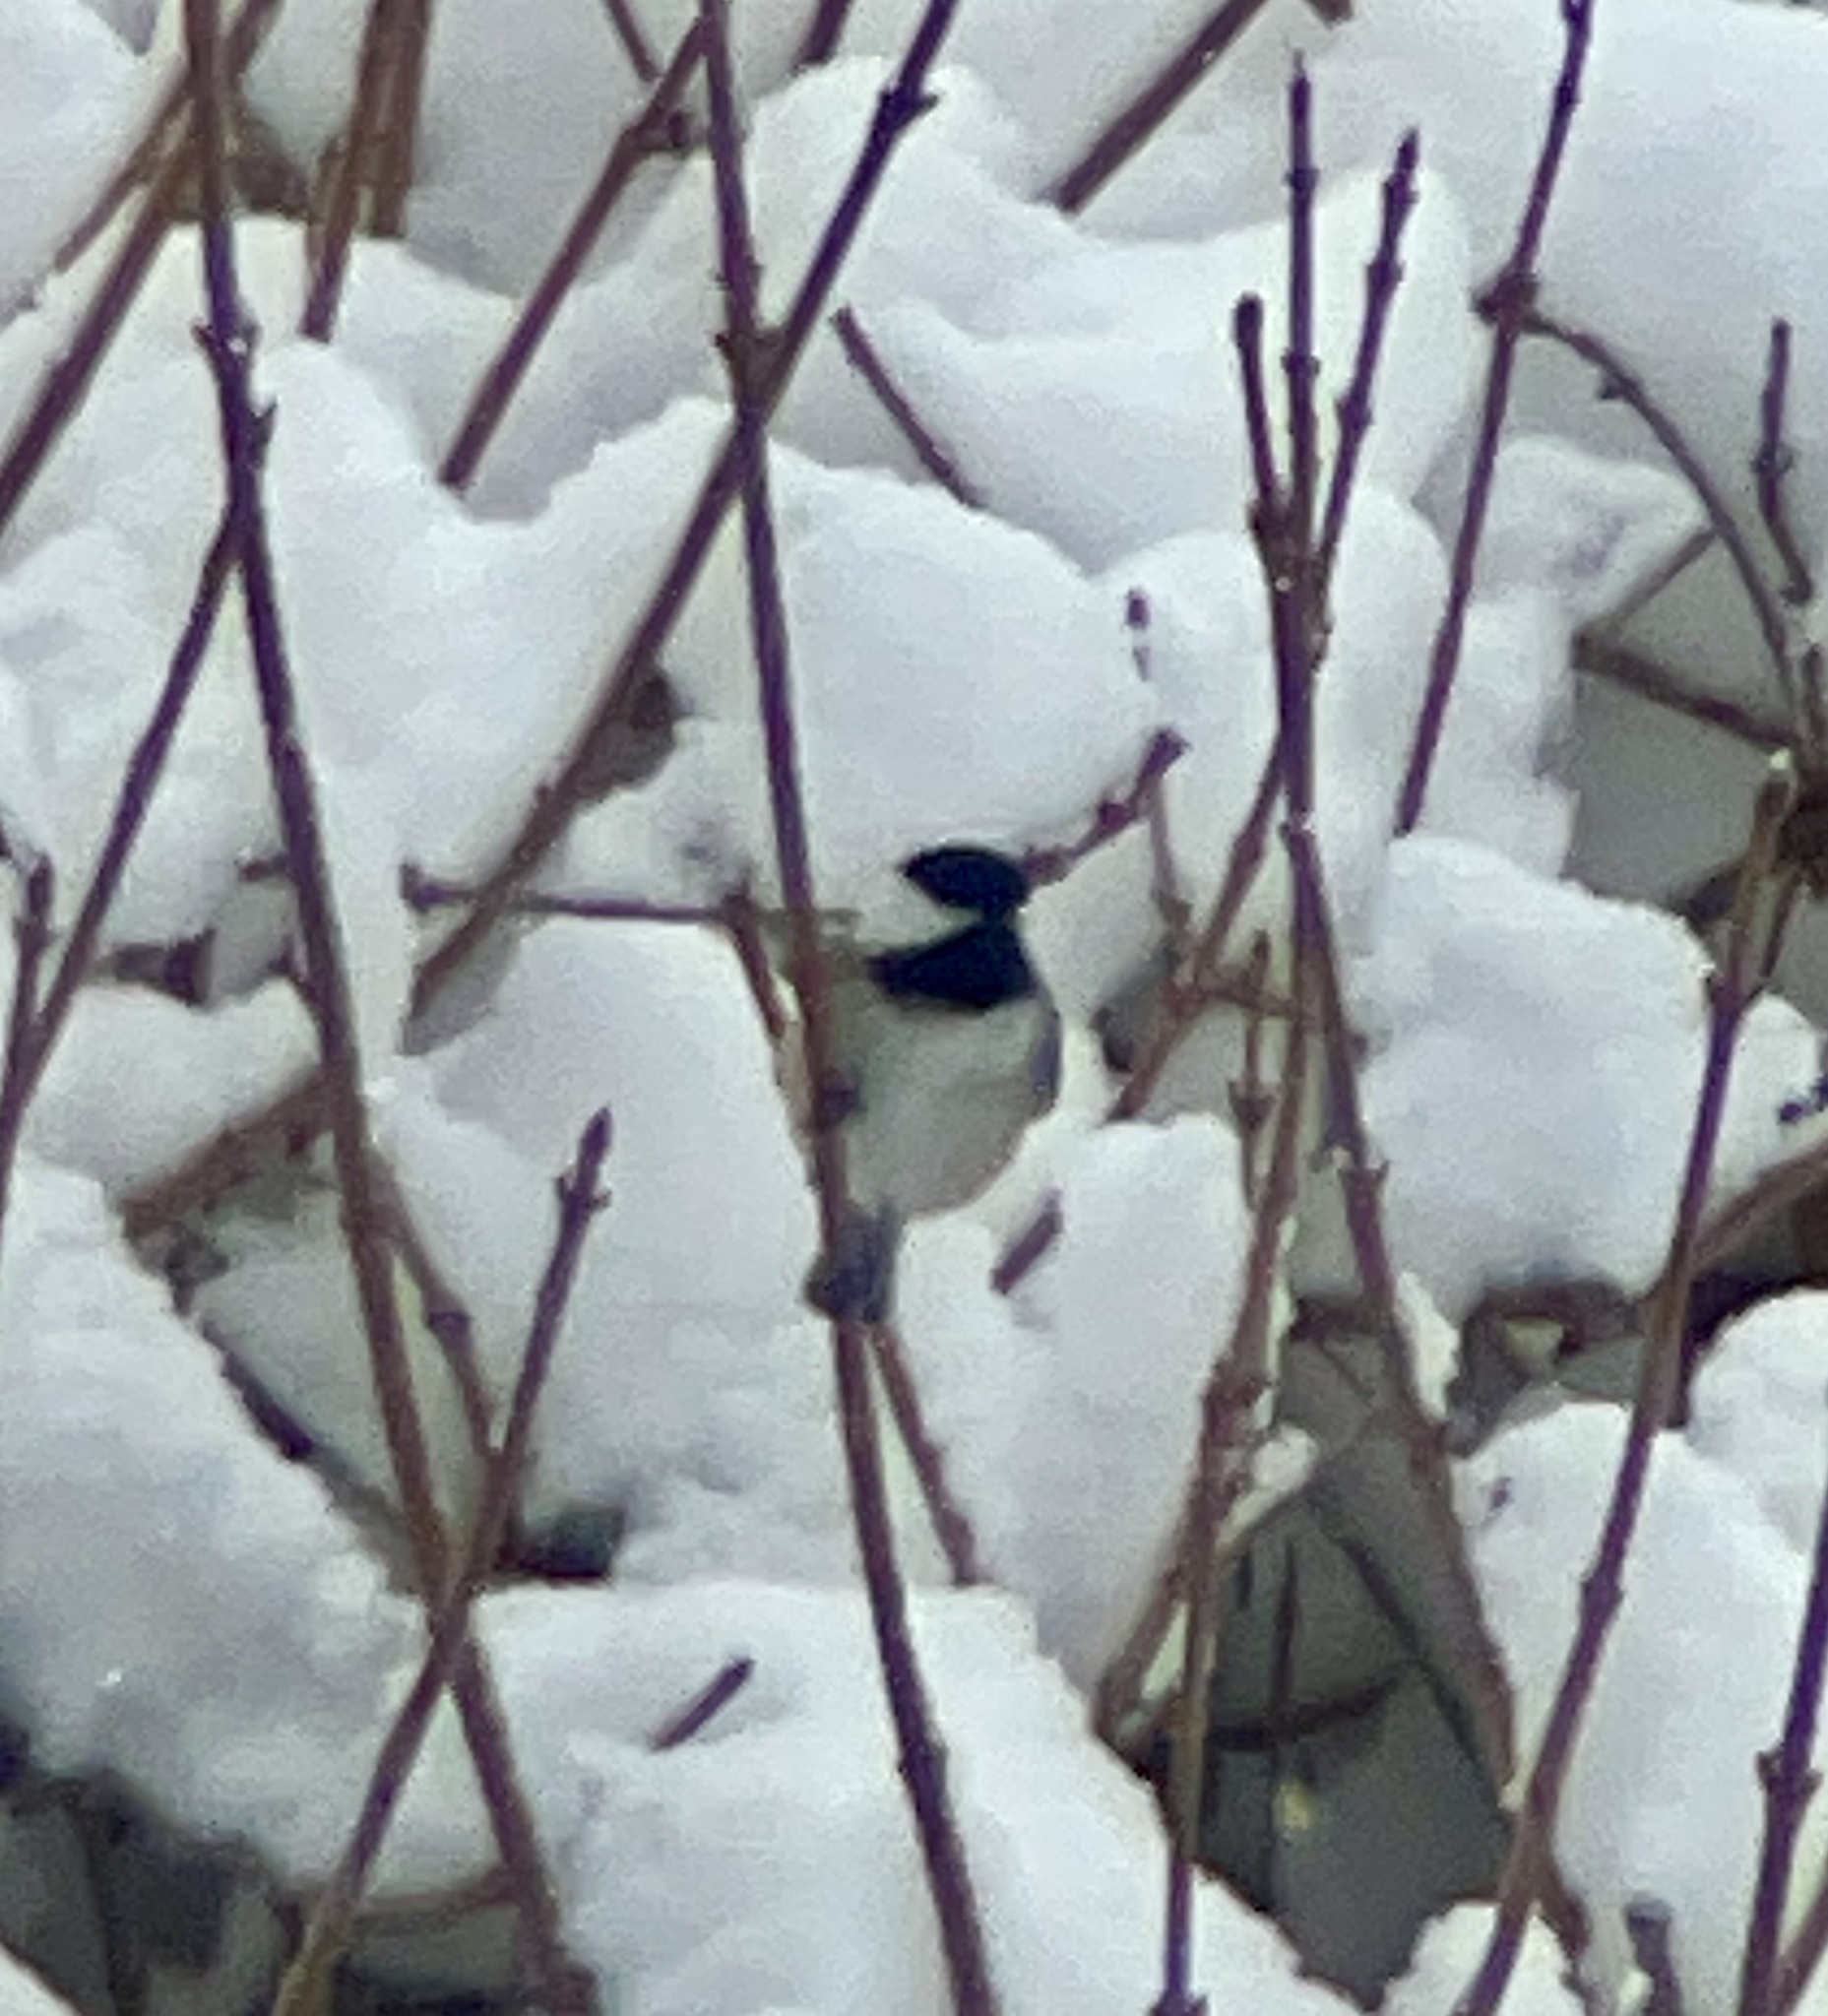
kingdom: Animalia
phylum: Chordata
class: Aves
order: Passeriformes
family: Paridae
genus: Poecile
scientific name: Poecile atricapillus
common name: Black-capped chickadee
